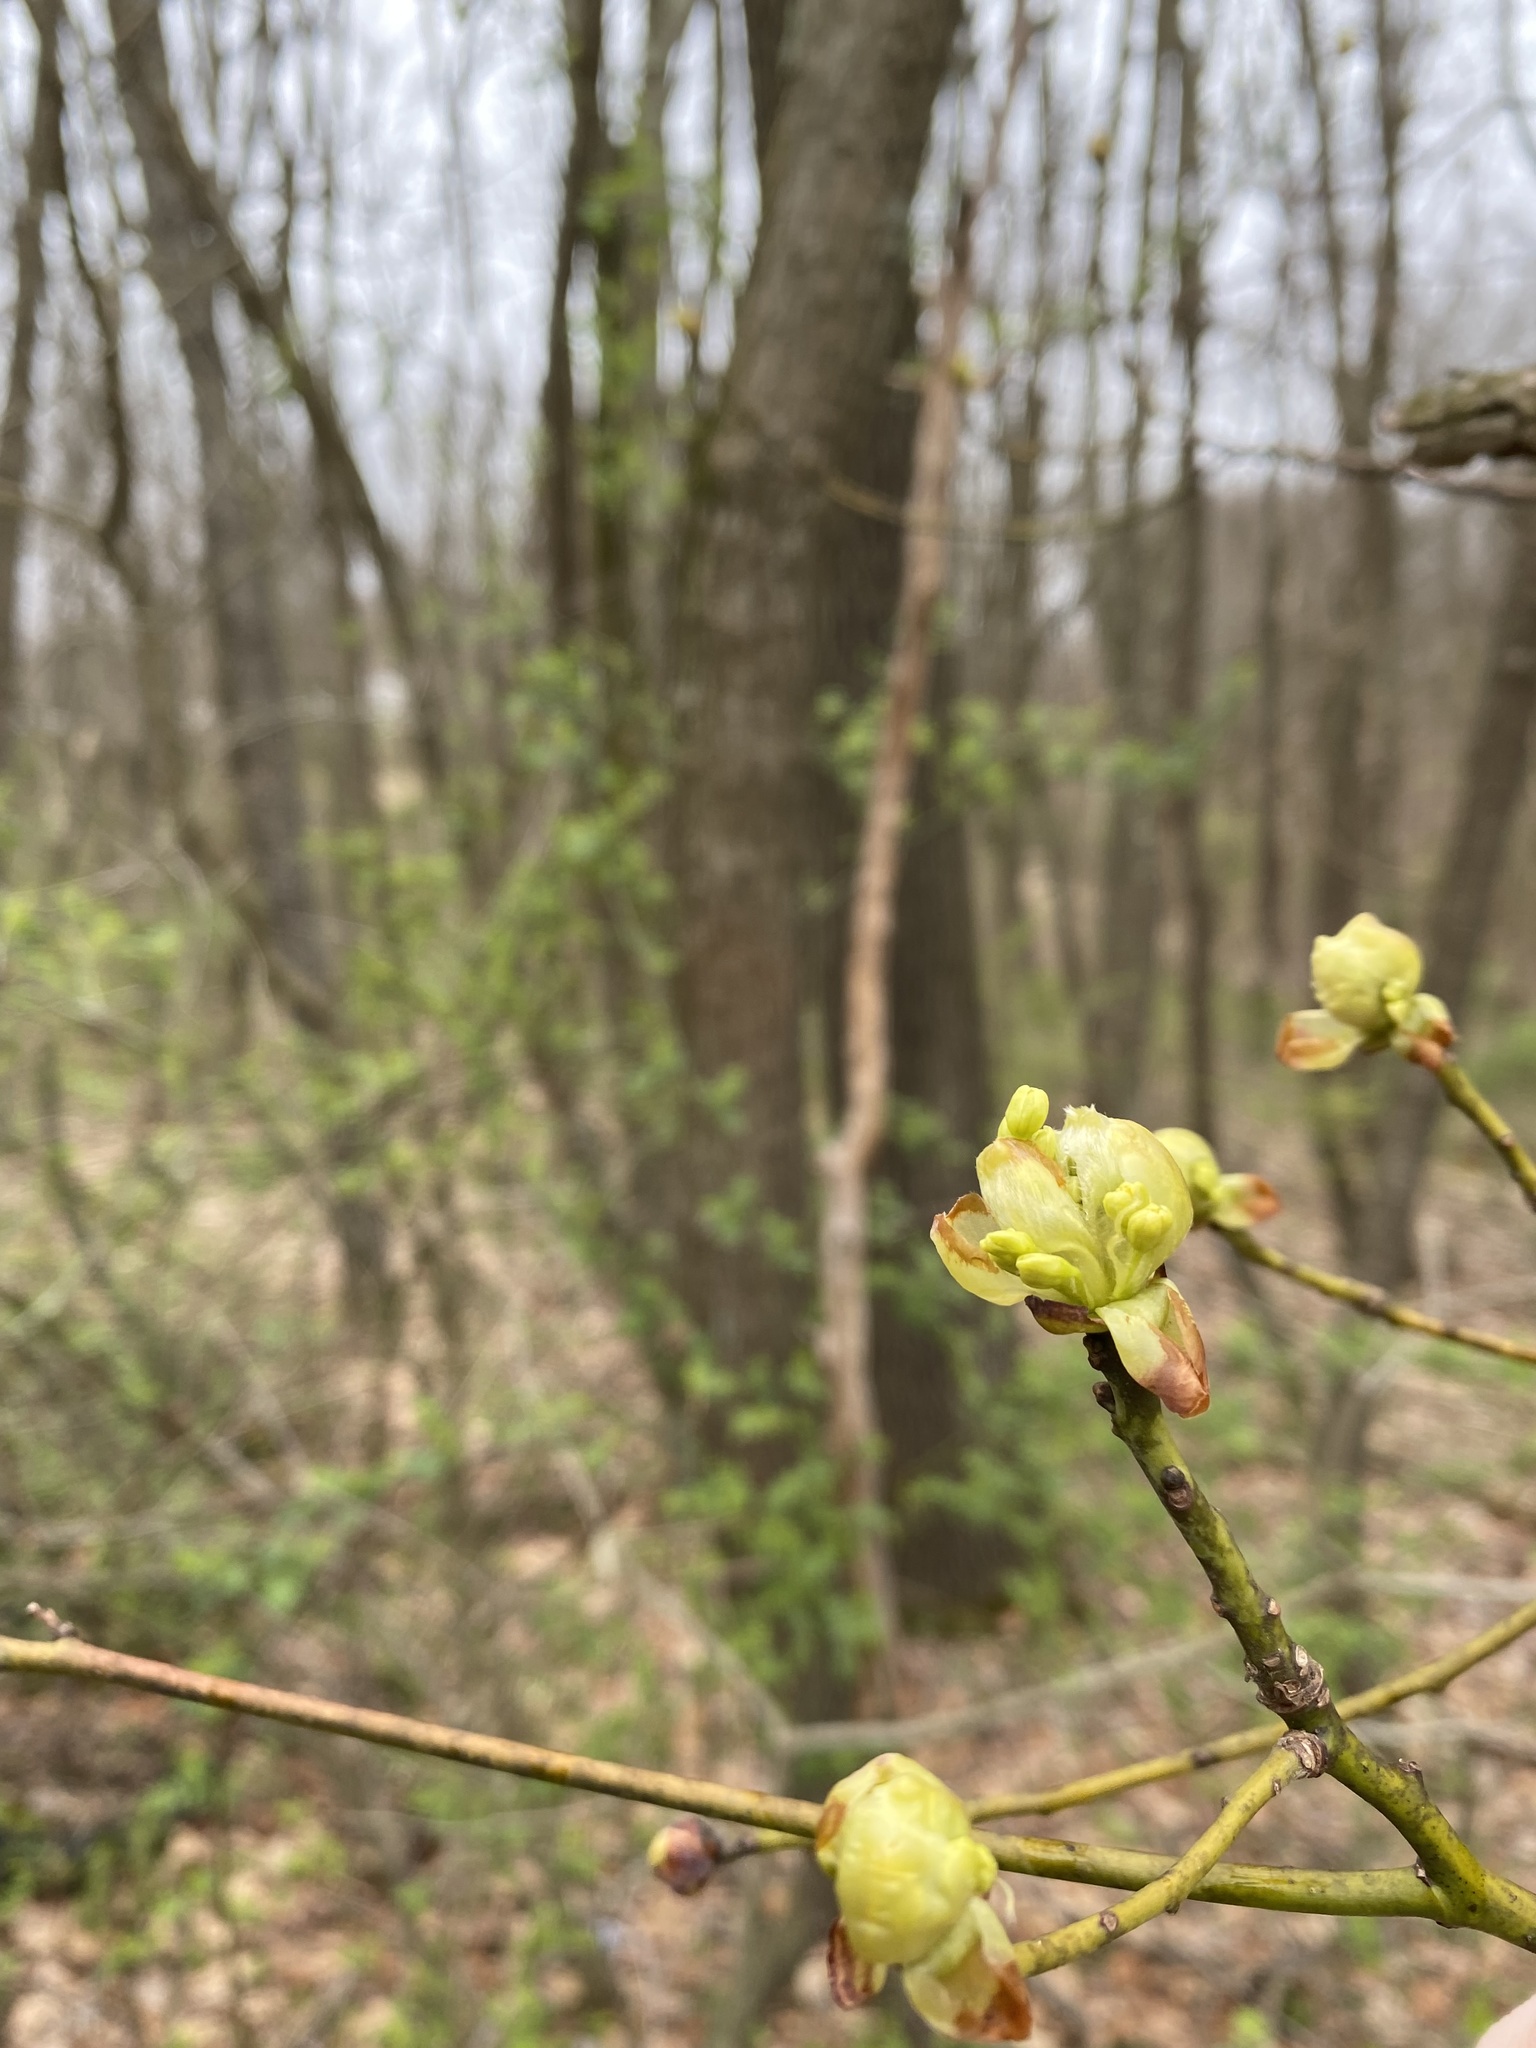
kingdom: Plantae
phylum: Tracheophyta
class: Magnoliopsida
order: Laurales
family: Lauraceae
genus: Sassafras
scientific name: Sassafras albidum
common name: Sassafras
